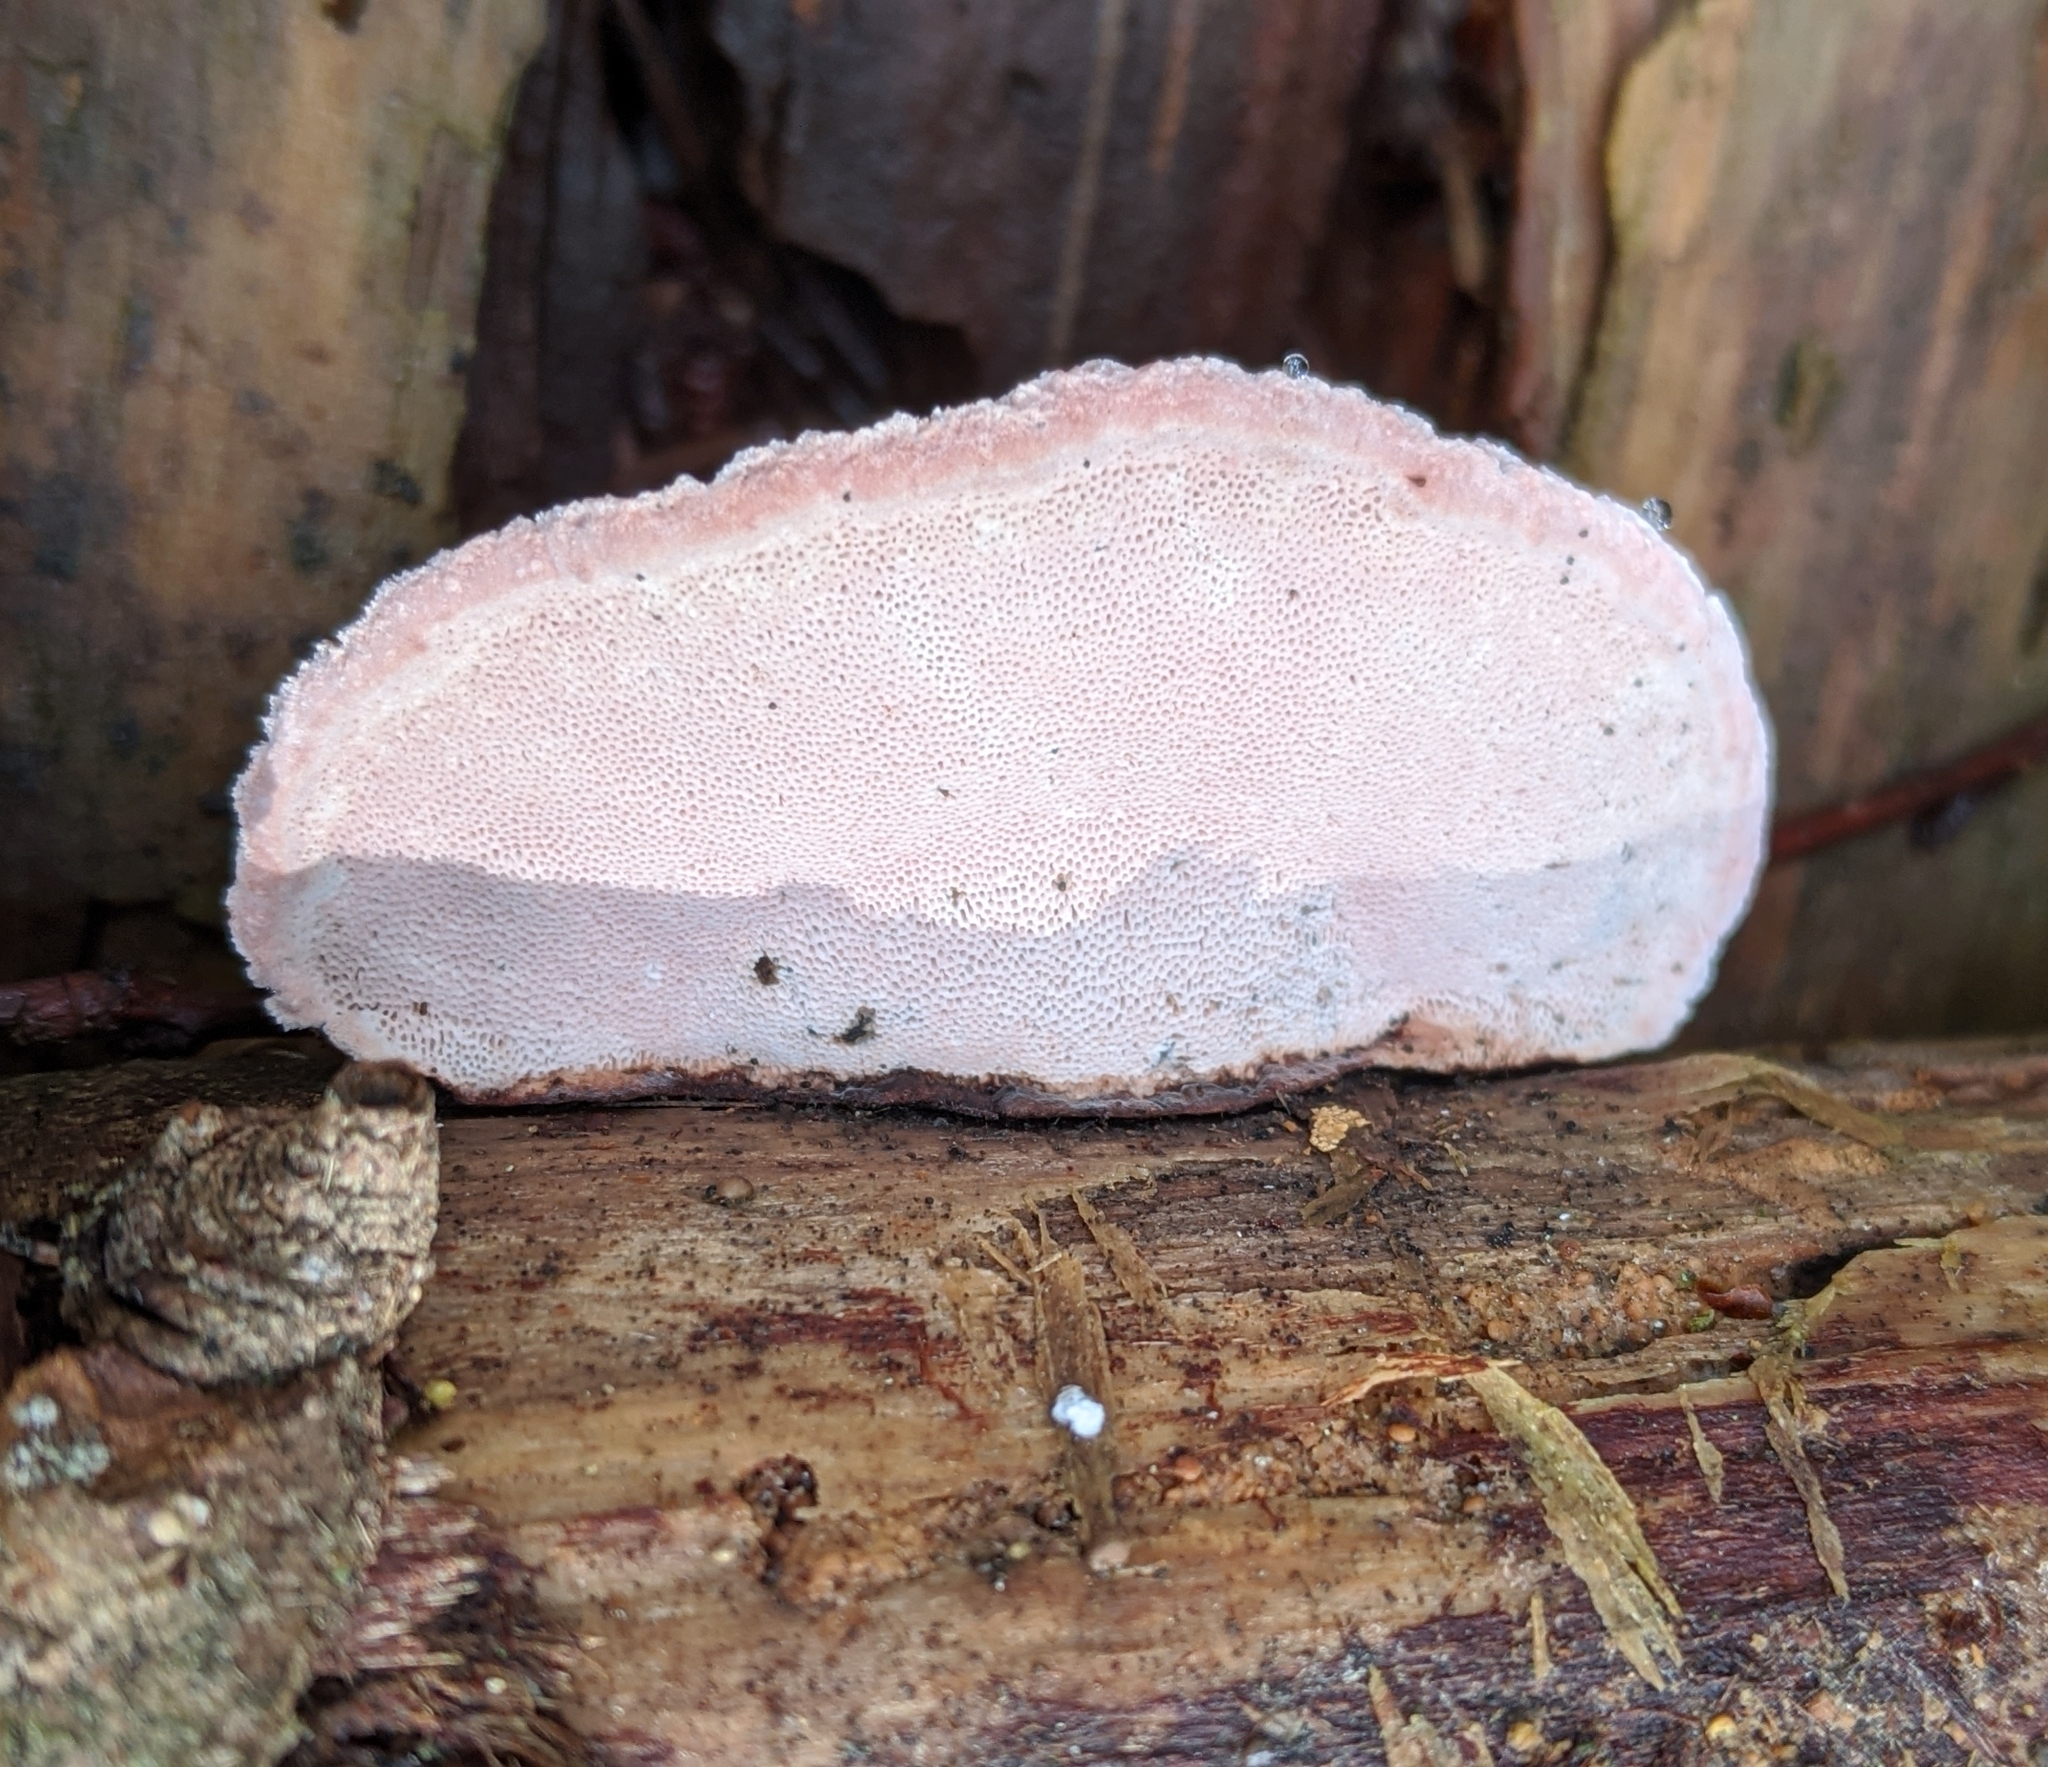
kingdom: Fungi
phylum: Basidiomycota
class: Agaricomycetes
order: Polyporales
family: Fomitopsidaceae
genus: Rhodofomes
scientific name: Rhodofomes cajanderi
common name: Rosy conk
